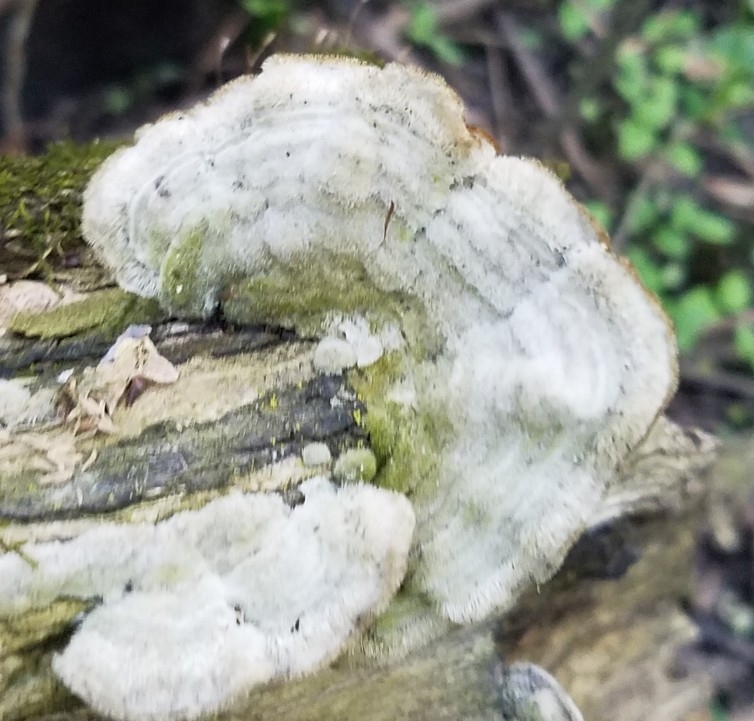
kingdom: Fungi
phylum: Basidiomycota
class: Agaricomycetes
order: Polyporales
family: Cerrenaceae
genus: Cerrena
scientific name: Cerrena unicolor
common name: Mossy maze polypore
